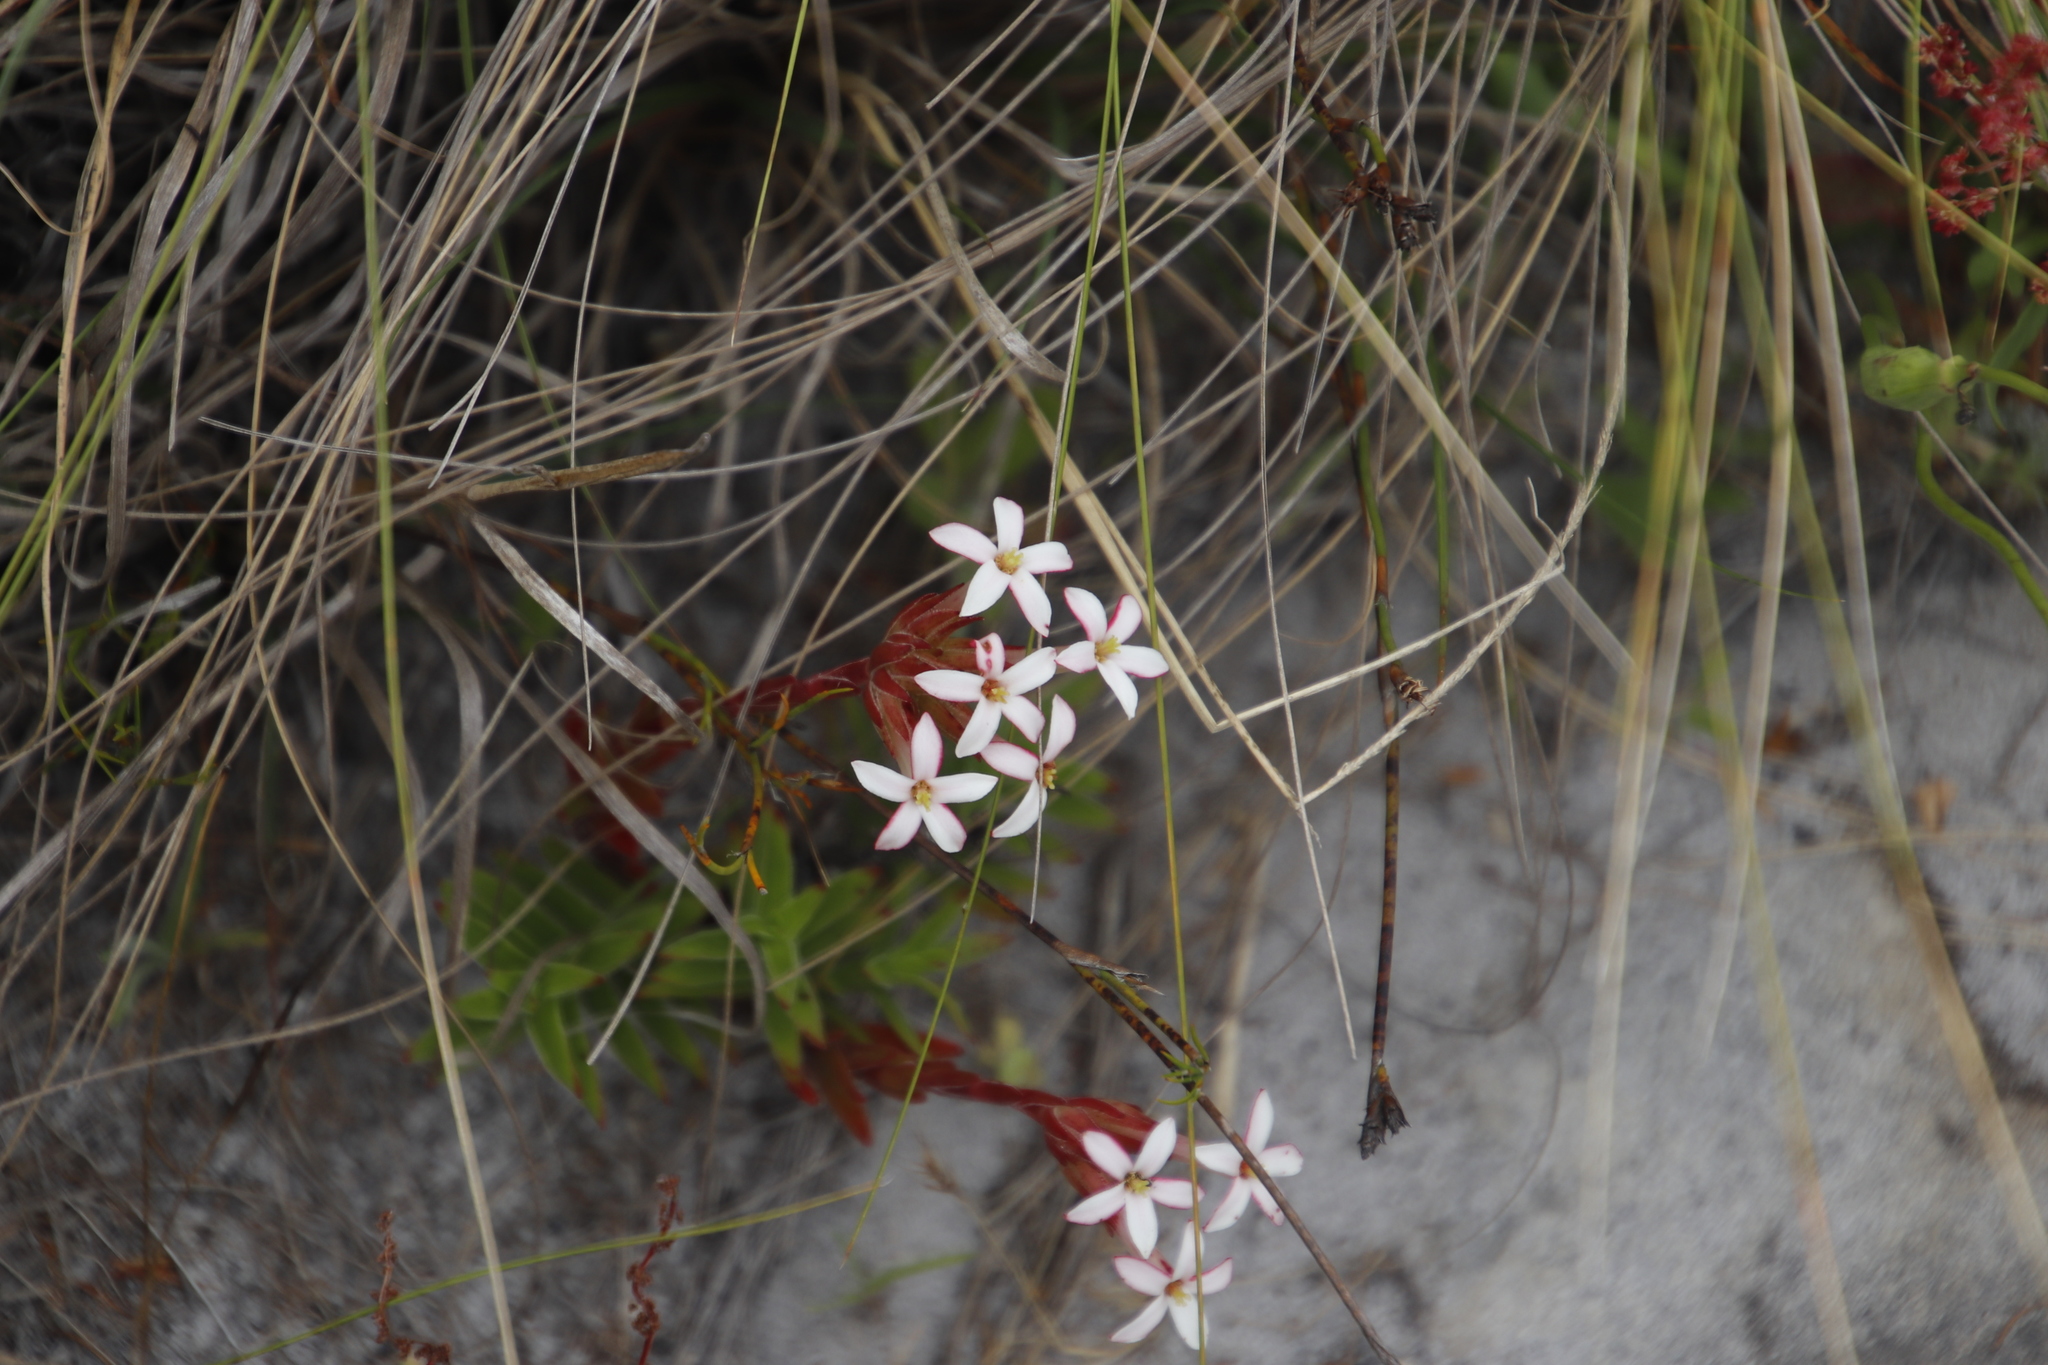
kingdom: Plantae
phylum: Tracheophyta
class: Magnoliopsida
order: Saxifragales
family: Crassulaceae
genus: Crassula
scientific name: Crassula fascicularis
